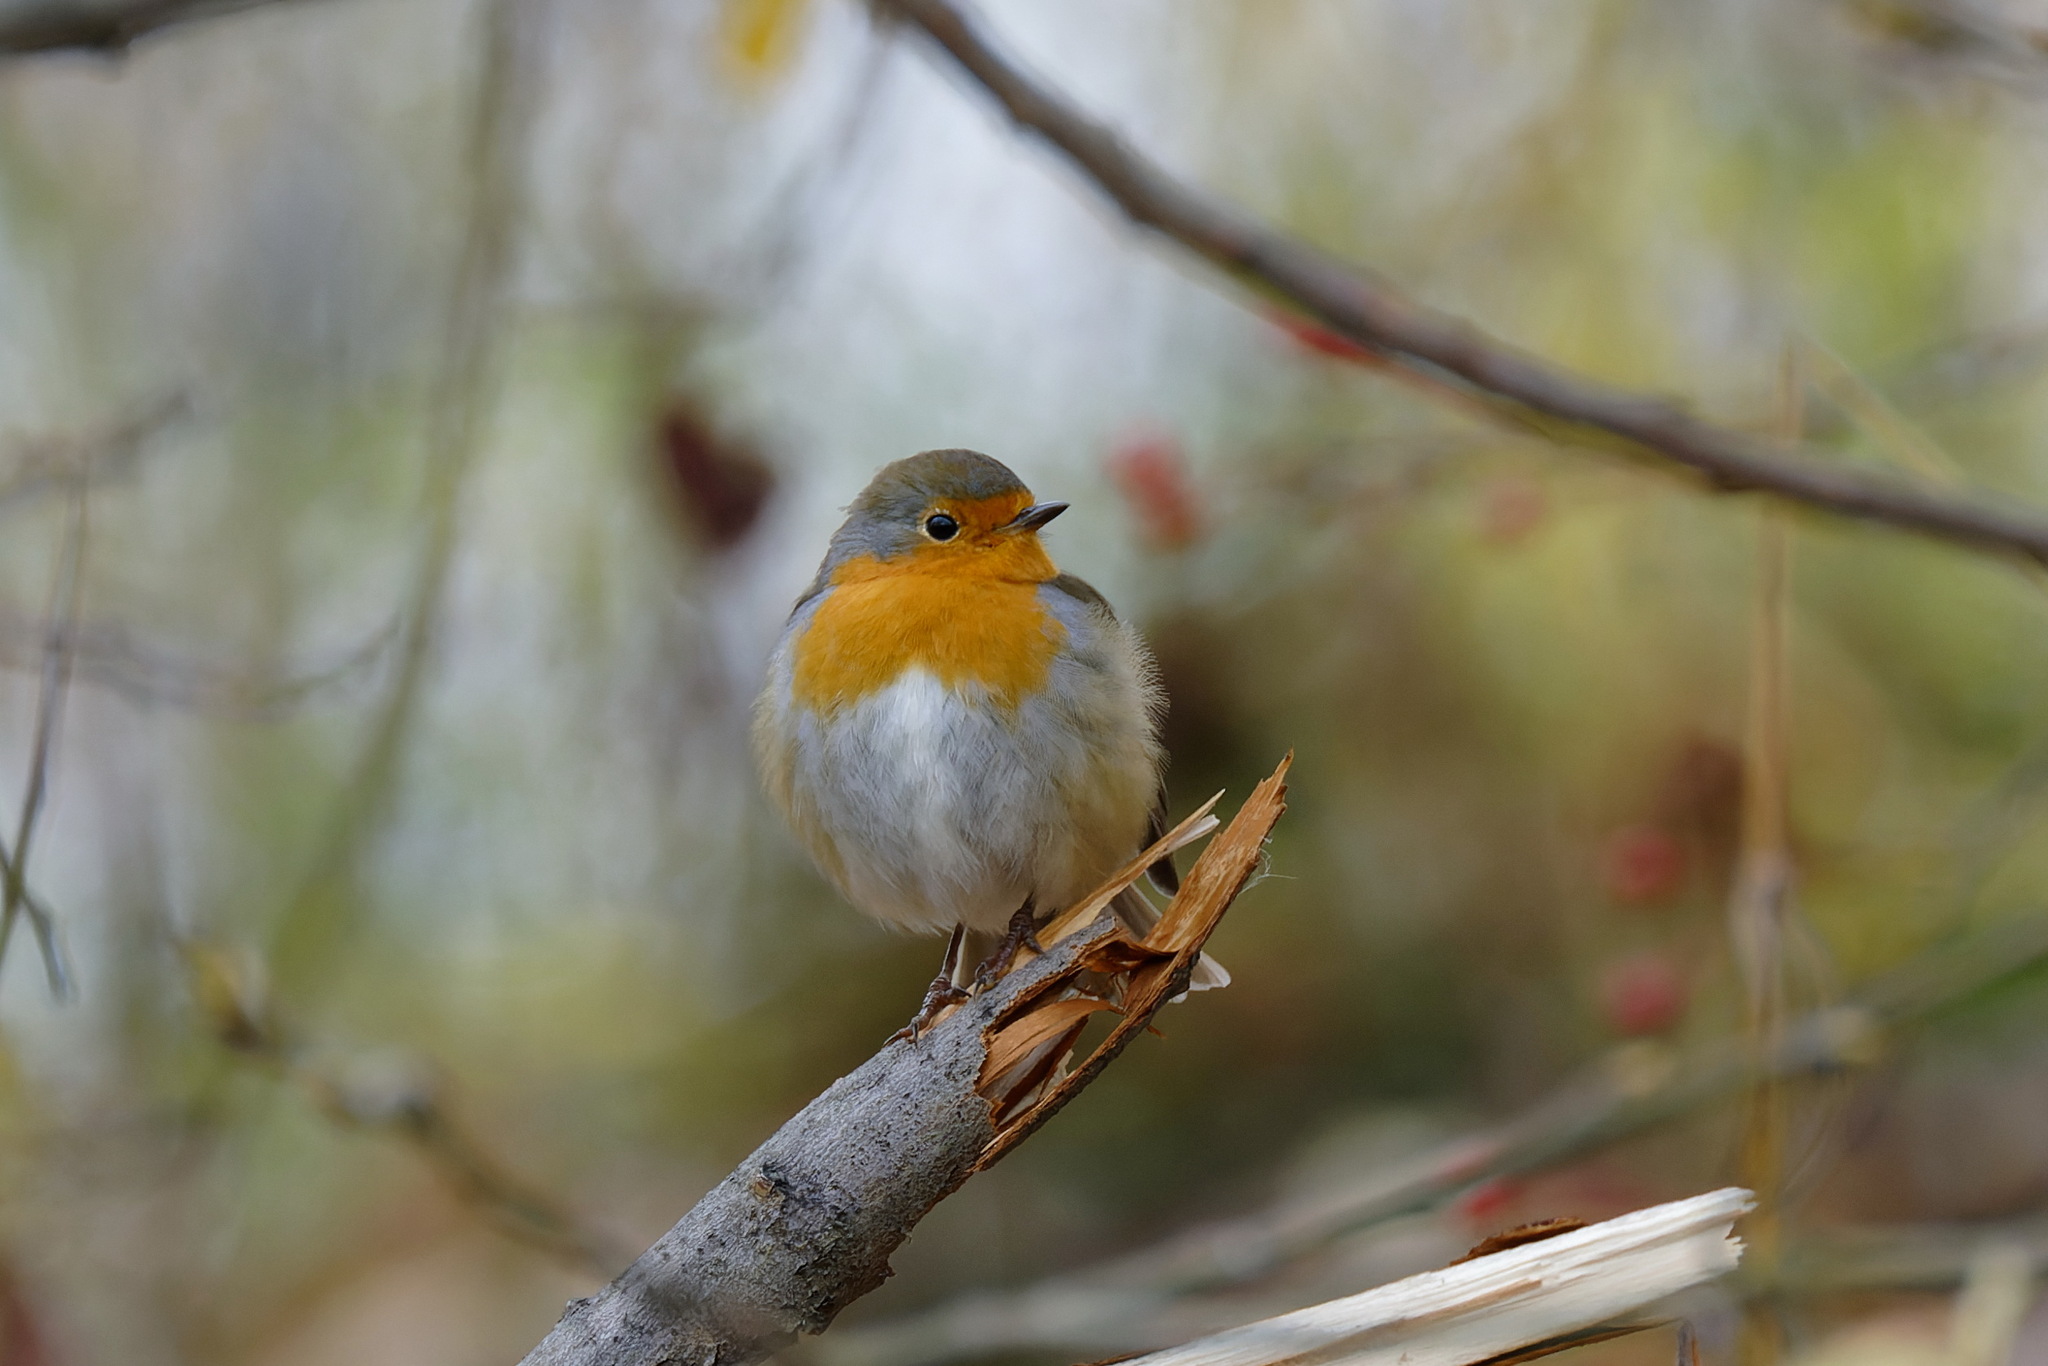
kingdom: Animalia
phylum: Chordata
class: Aves
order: Passeriformes
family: Muscicapidae
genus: Erithacus
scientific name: Erithacus rubecula
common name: European robin
